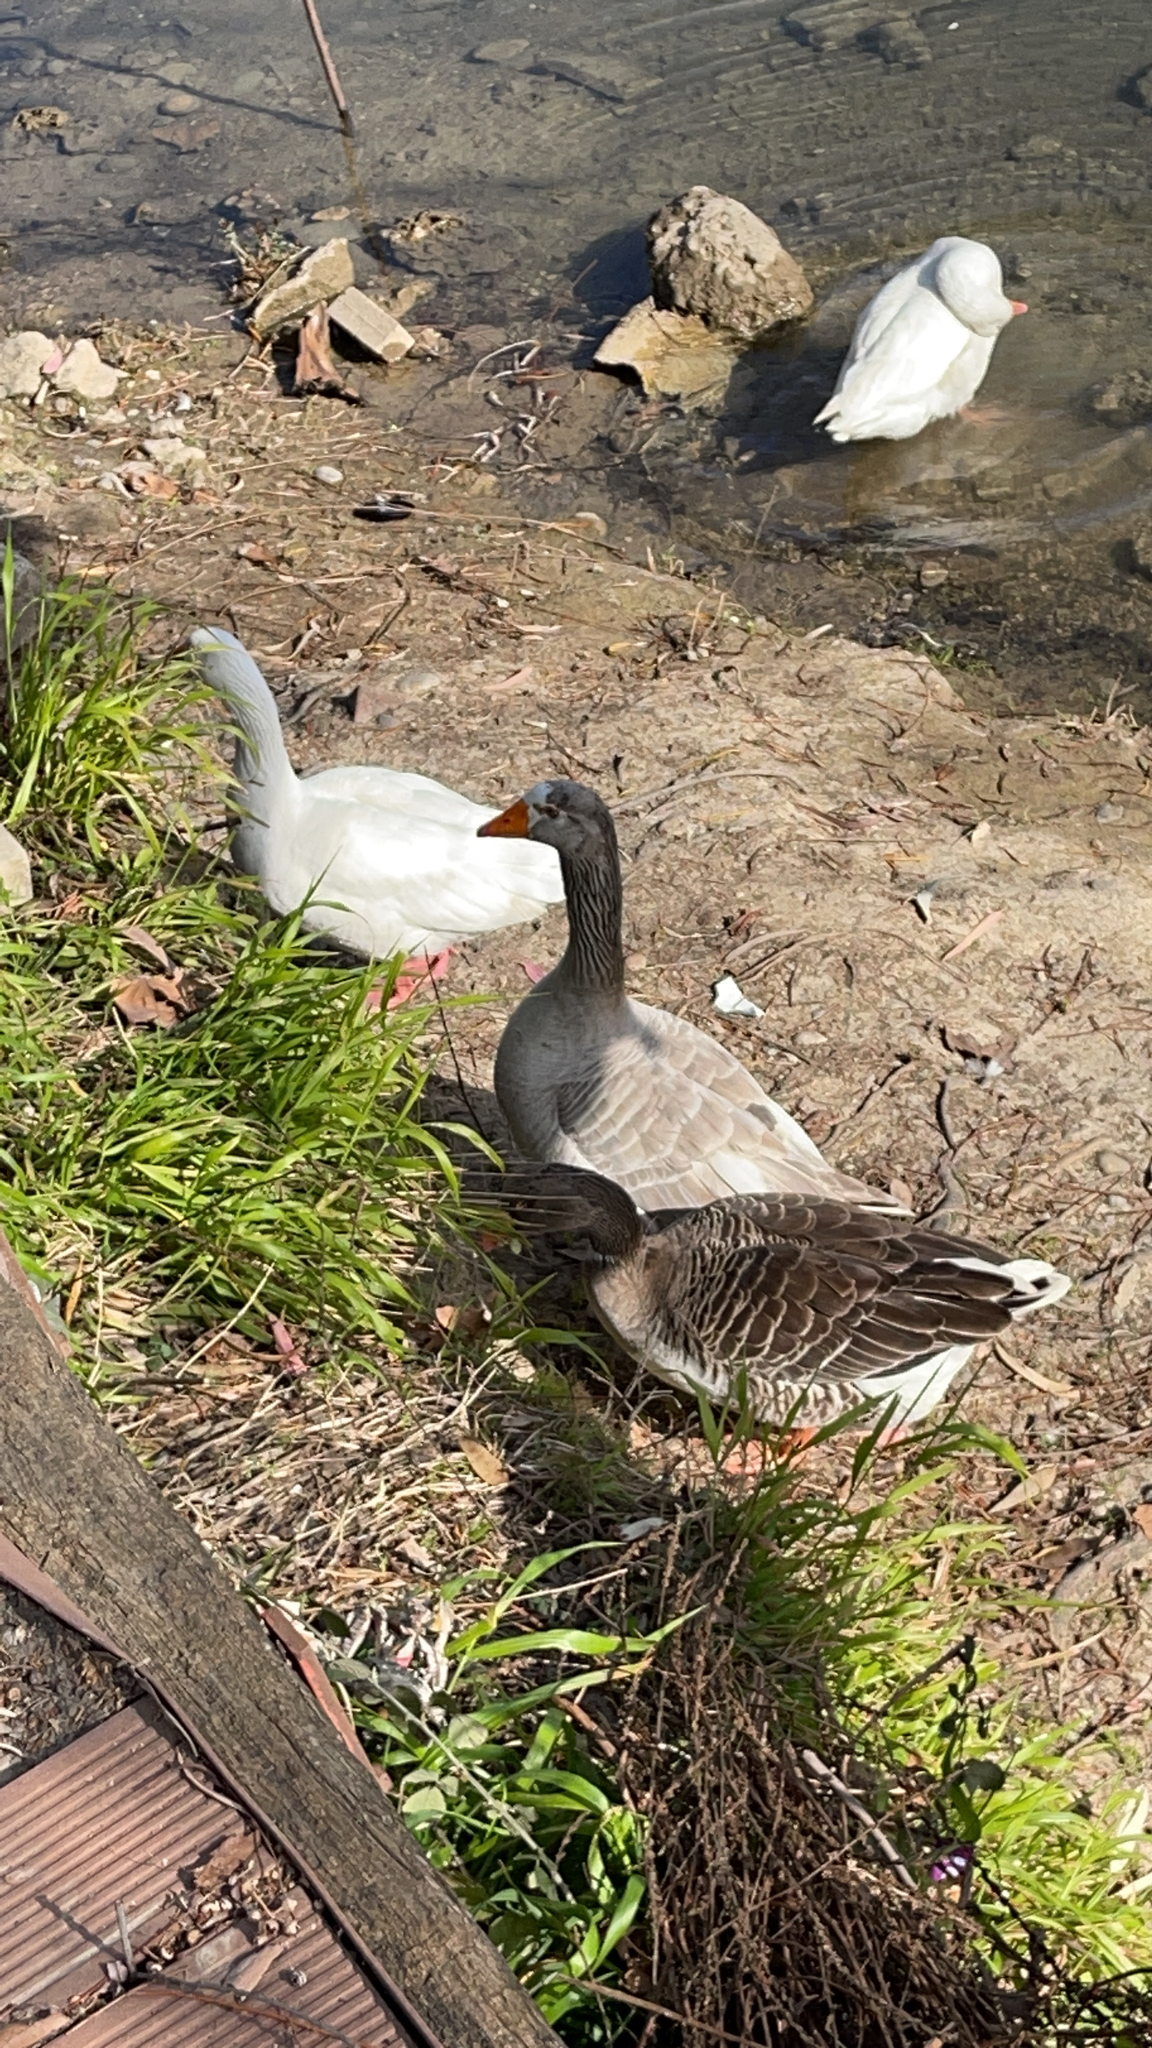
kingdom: Animalia
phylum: Chordata
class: Aves
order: Anseriformes
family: Anatidae
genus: Anser
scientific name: Anser anser
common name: Greylag goose
